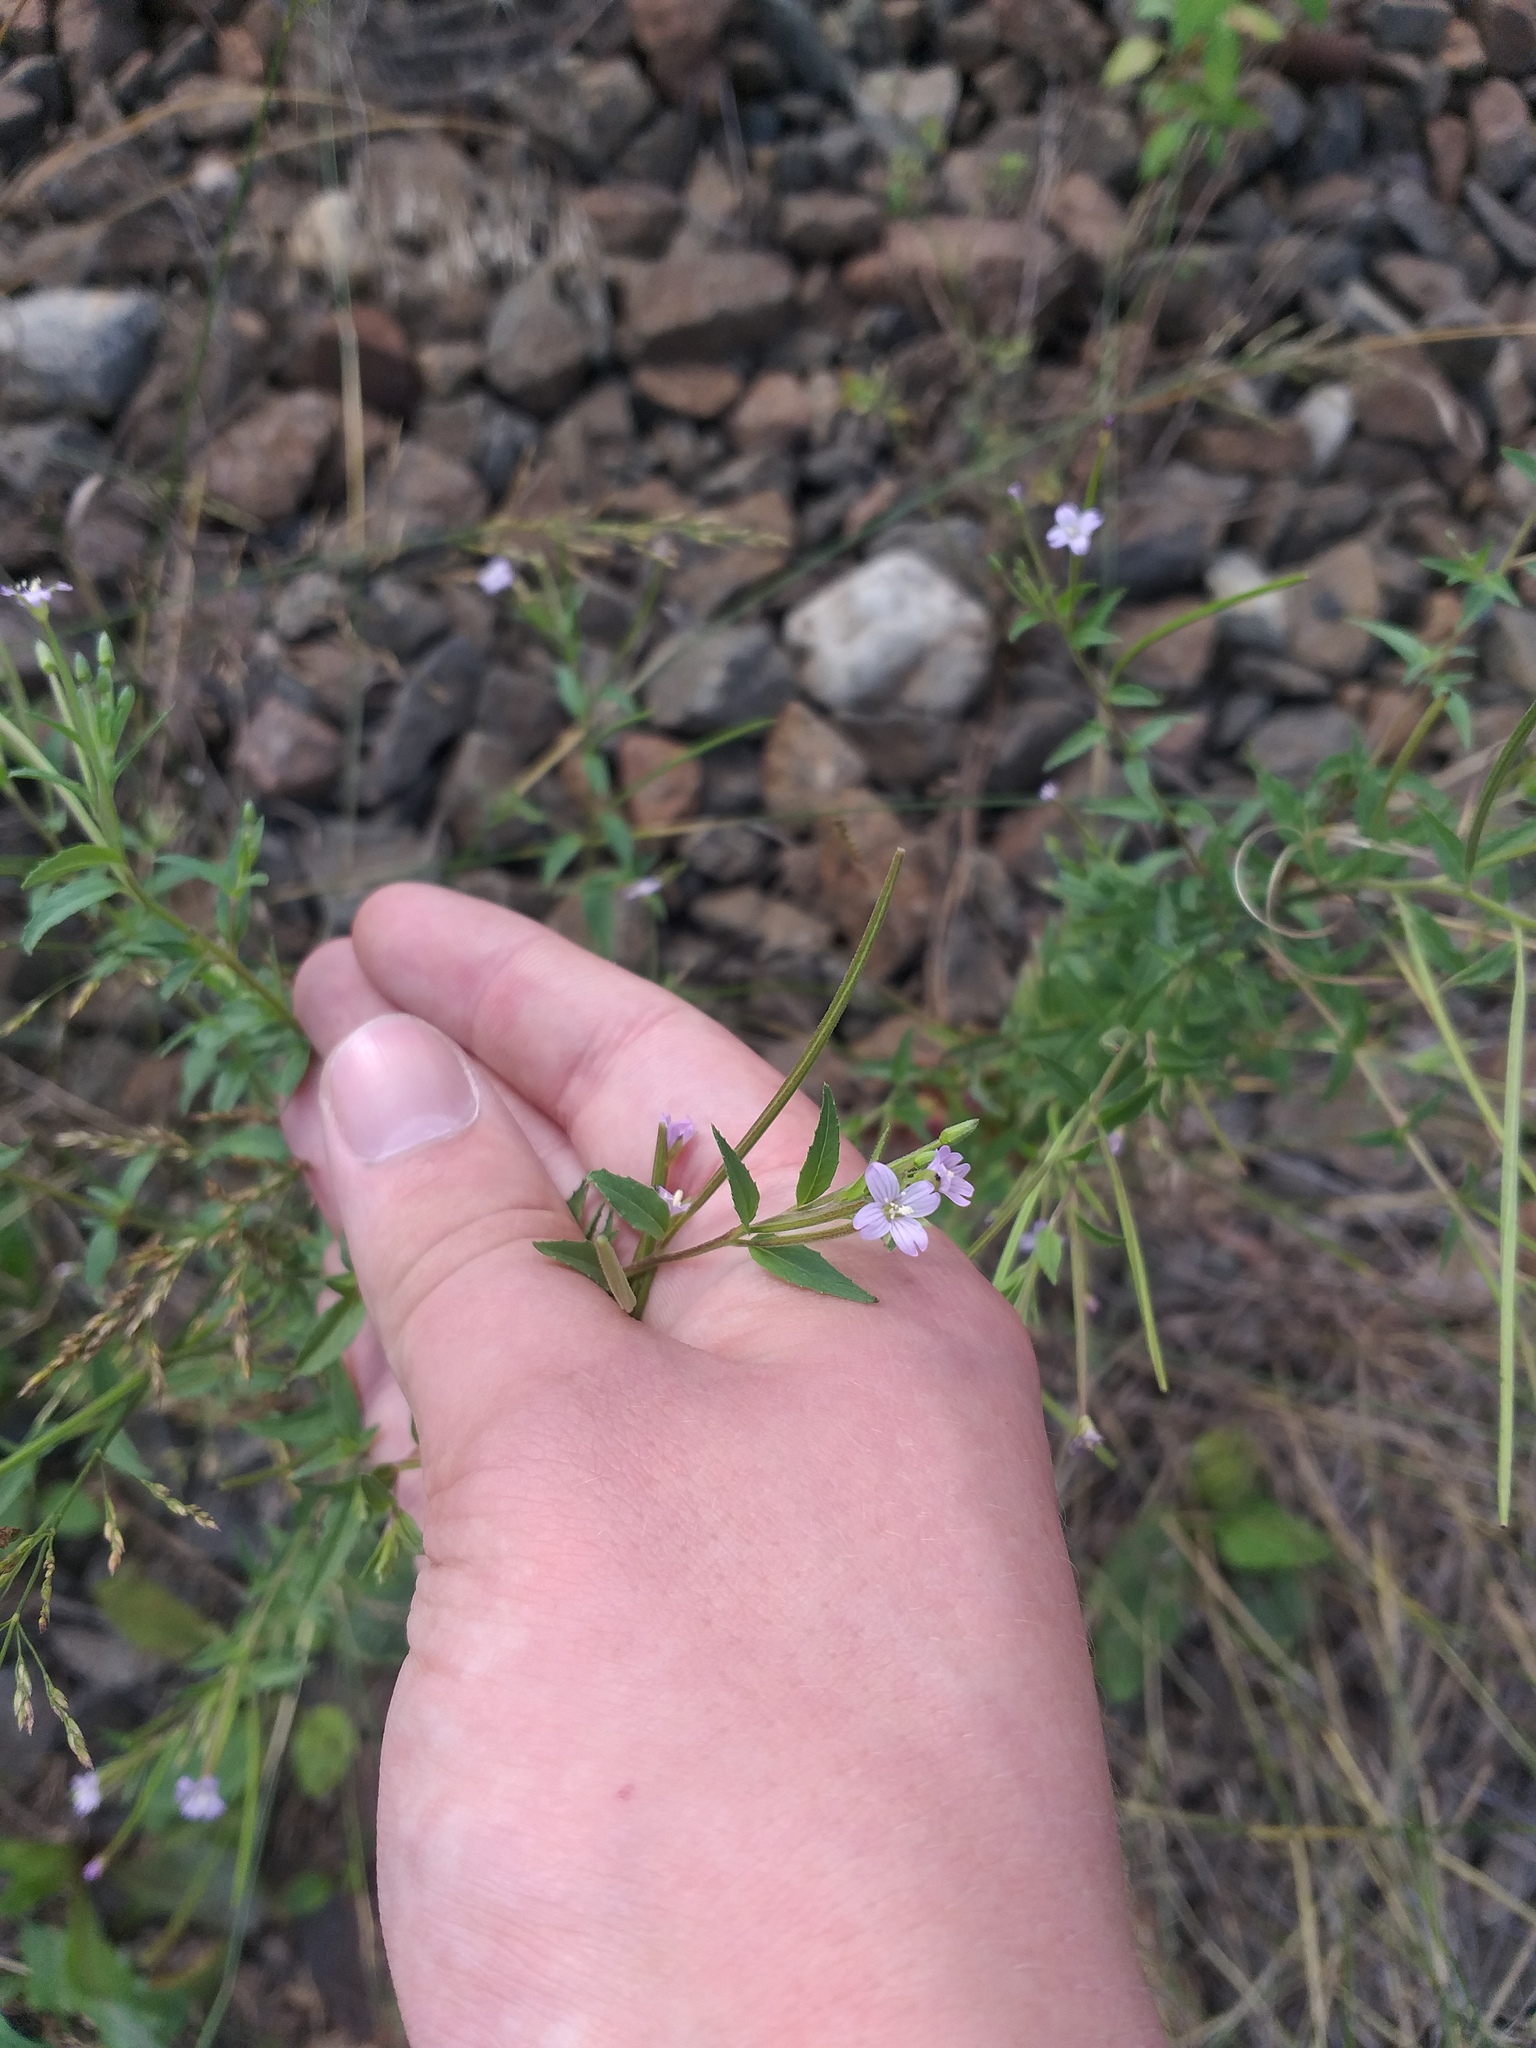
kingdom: Plantae
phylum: Tracheophyta
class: Magnoliopsida
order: Myrtales
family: Onagraceae
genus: Epilobium
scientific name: Epilobium ciliatum
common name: American willowherb
